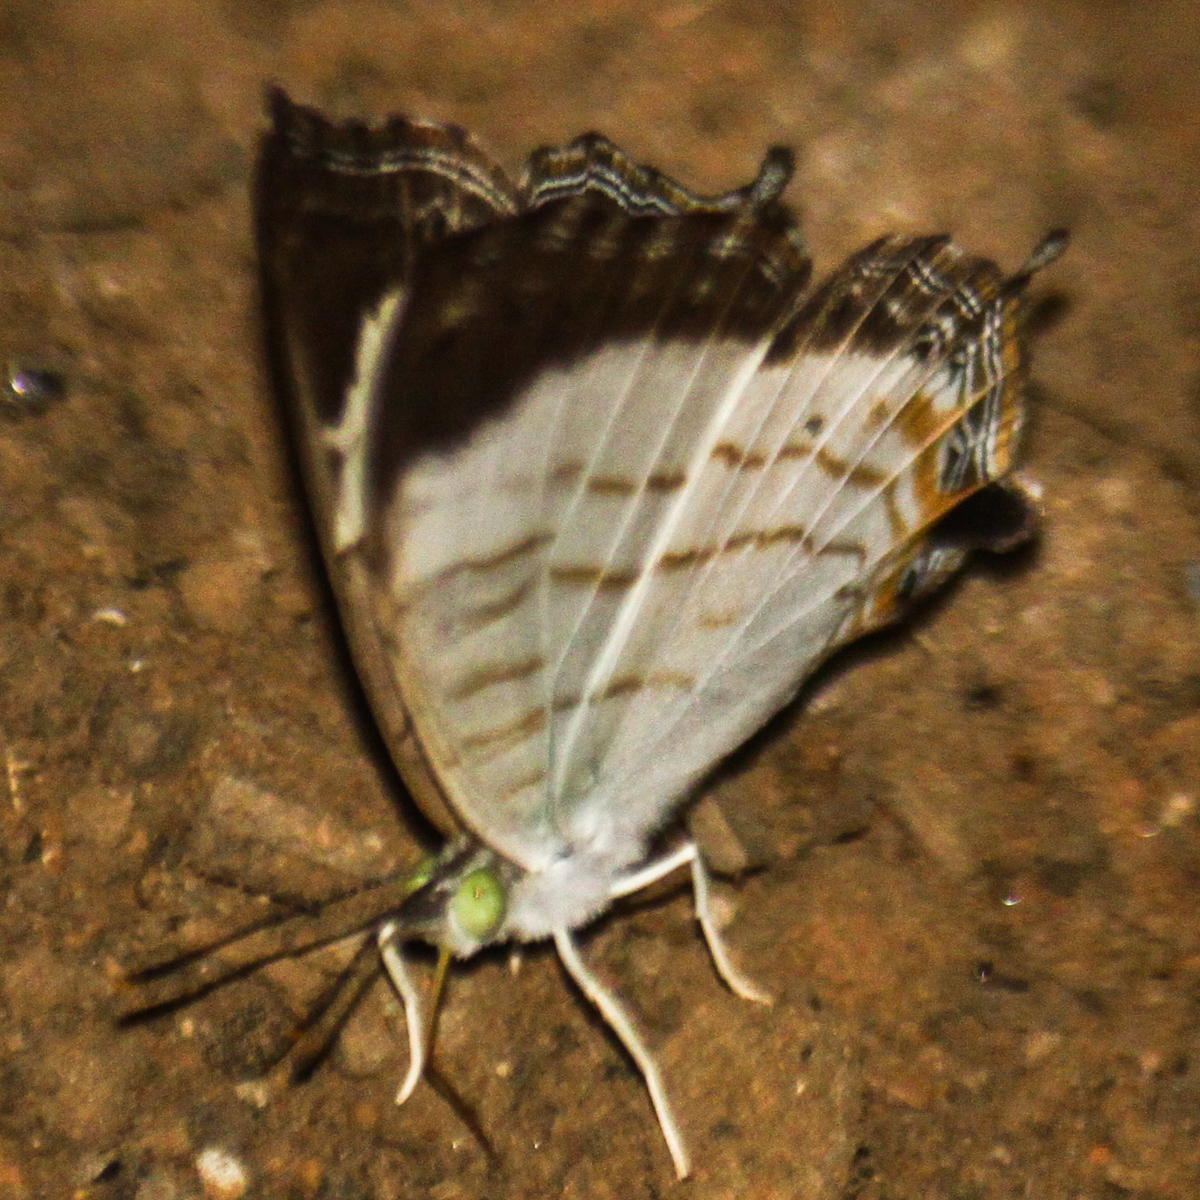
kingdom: Animalia
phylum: Arthropoda
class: Insecta
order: Lepidoptera
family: Nymphalidae
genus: Cyrestis
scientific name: Cyrestis themire
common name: Little mapwing
